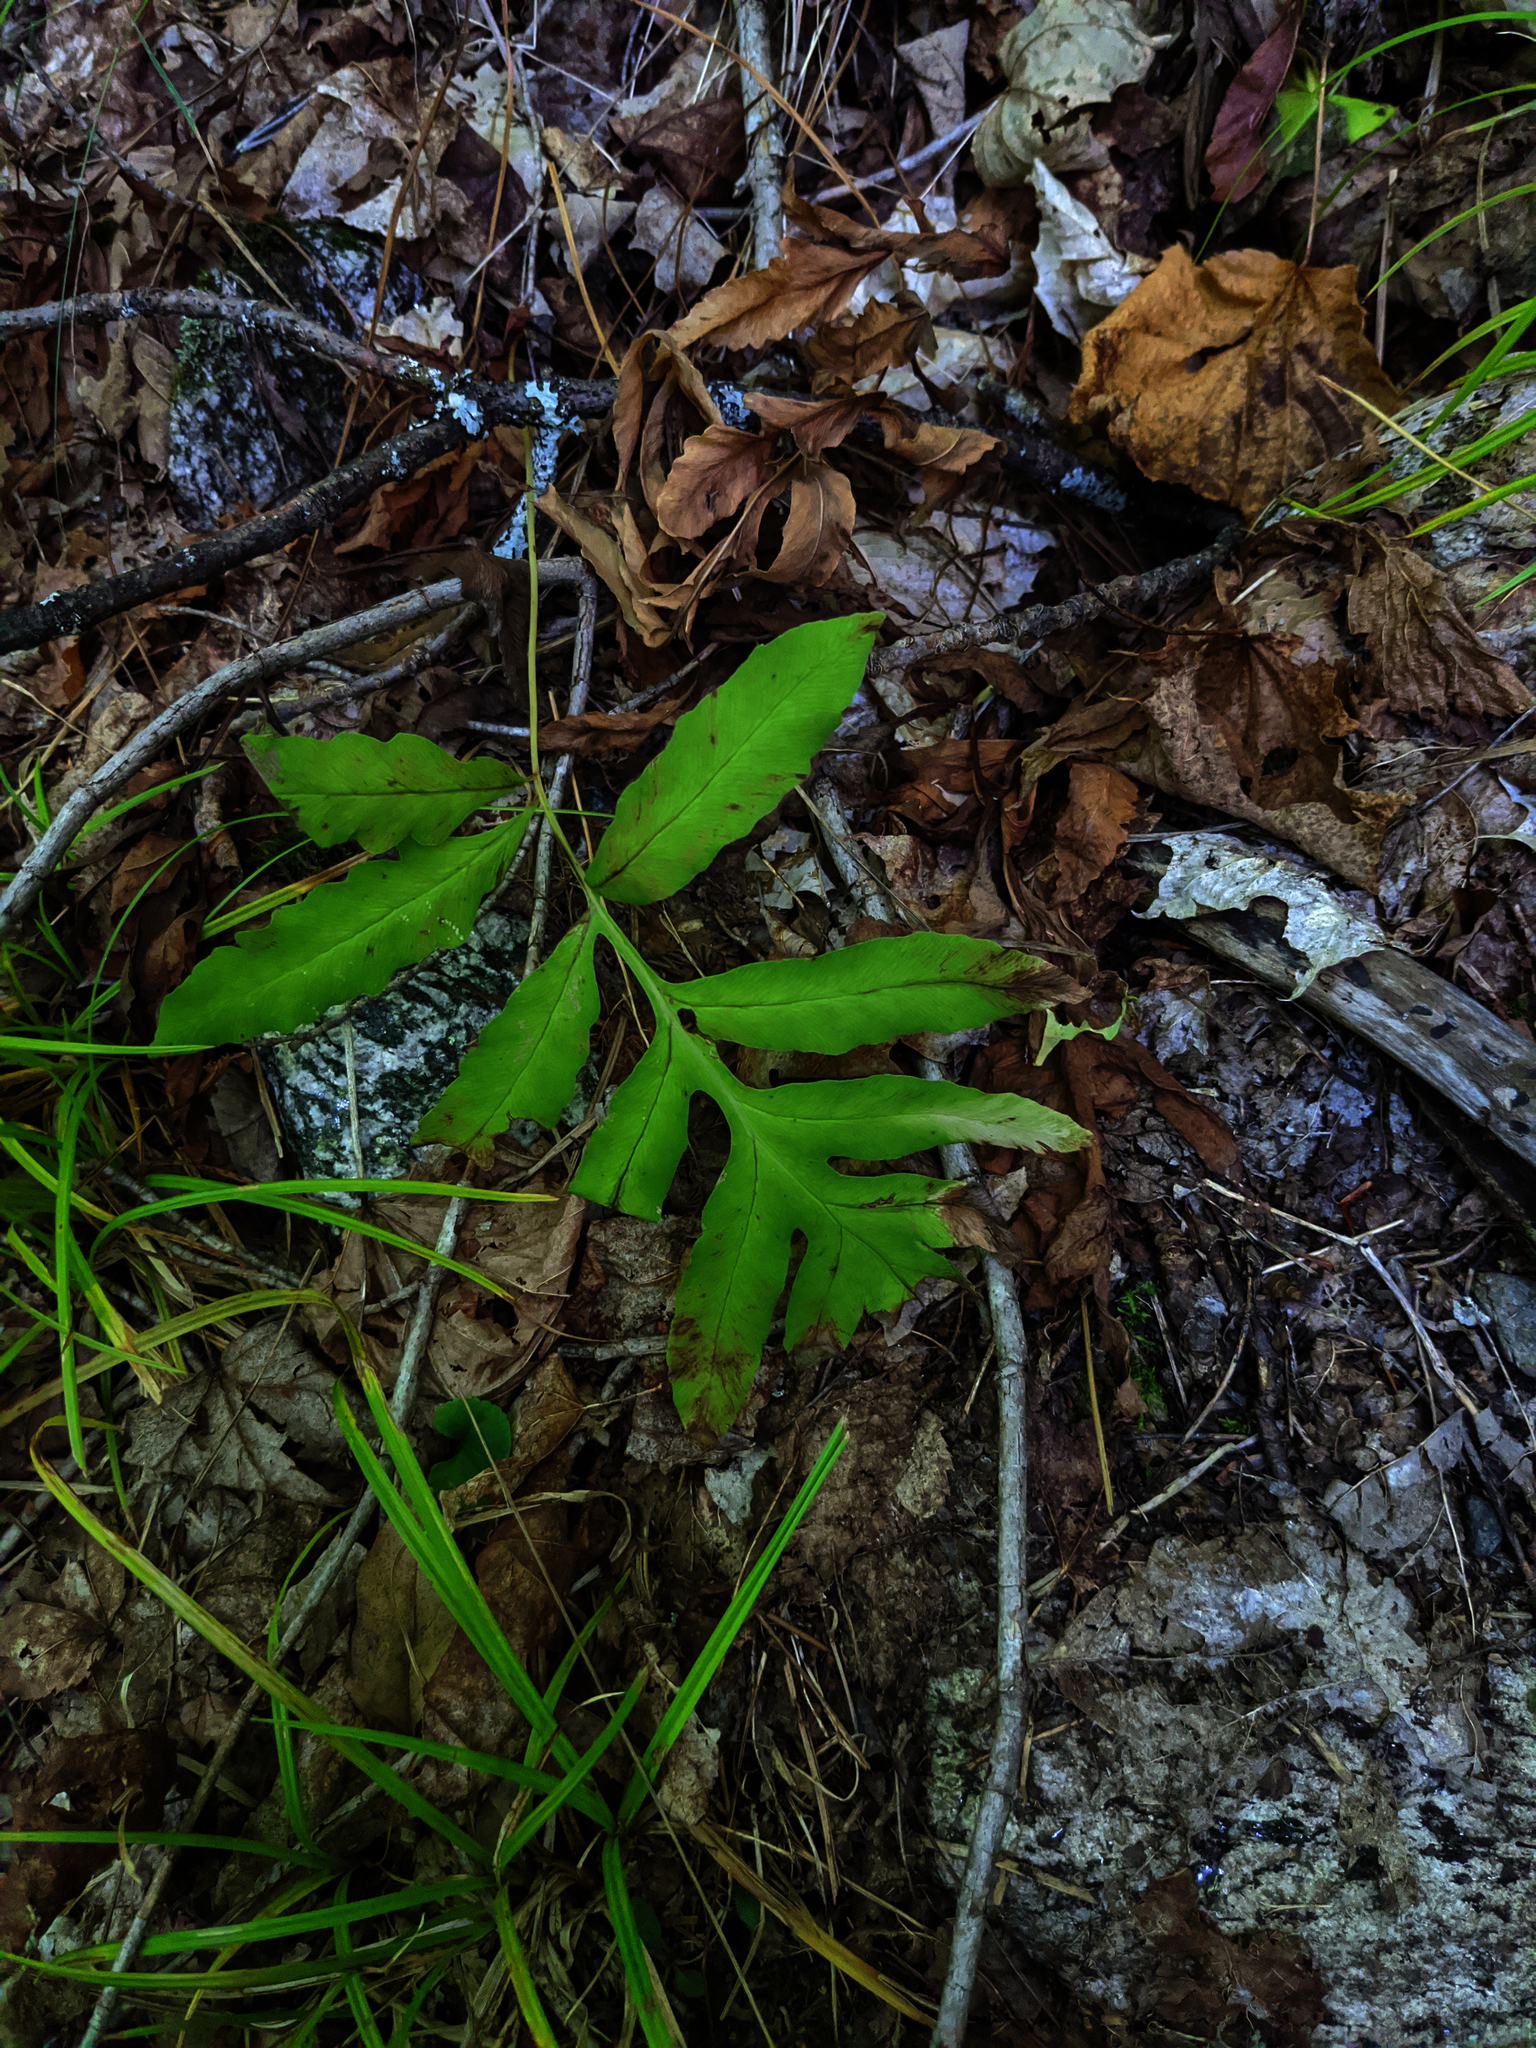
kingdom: Plantae
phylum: Tracheophyta
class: Polypodiopsida
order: Polypodiales
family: Onocleaceae
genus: Onoclea
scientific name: Onoclea sensibilis
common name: Sensitive fern
